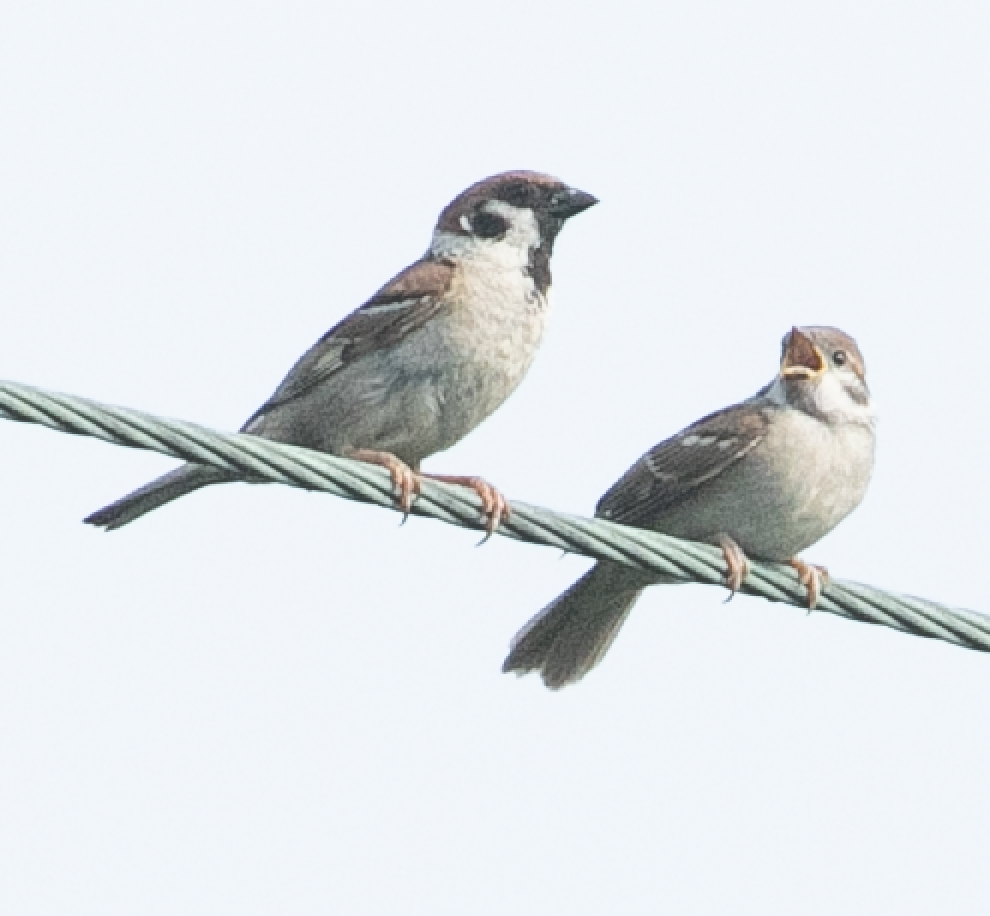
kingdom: Animalia
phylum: Chordata
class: Aves
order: Passeriformes
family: Passeridae
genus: Passer
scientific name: Passer montanus
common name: Eurasian tree sparrow
